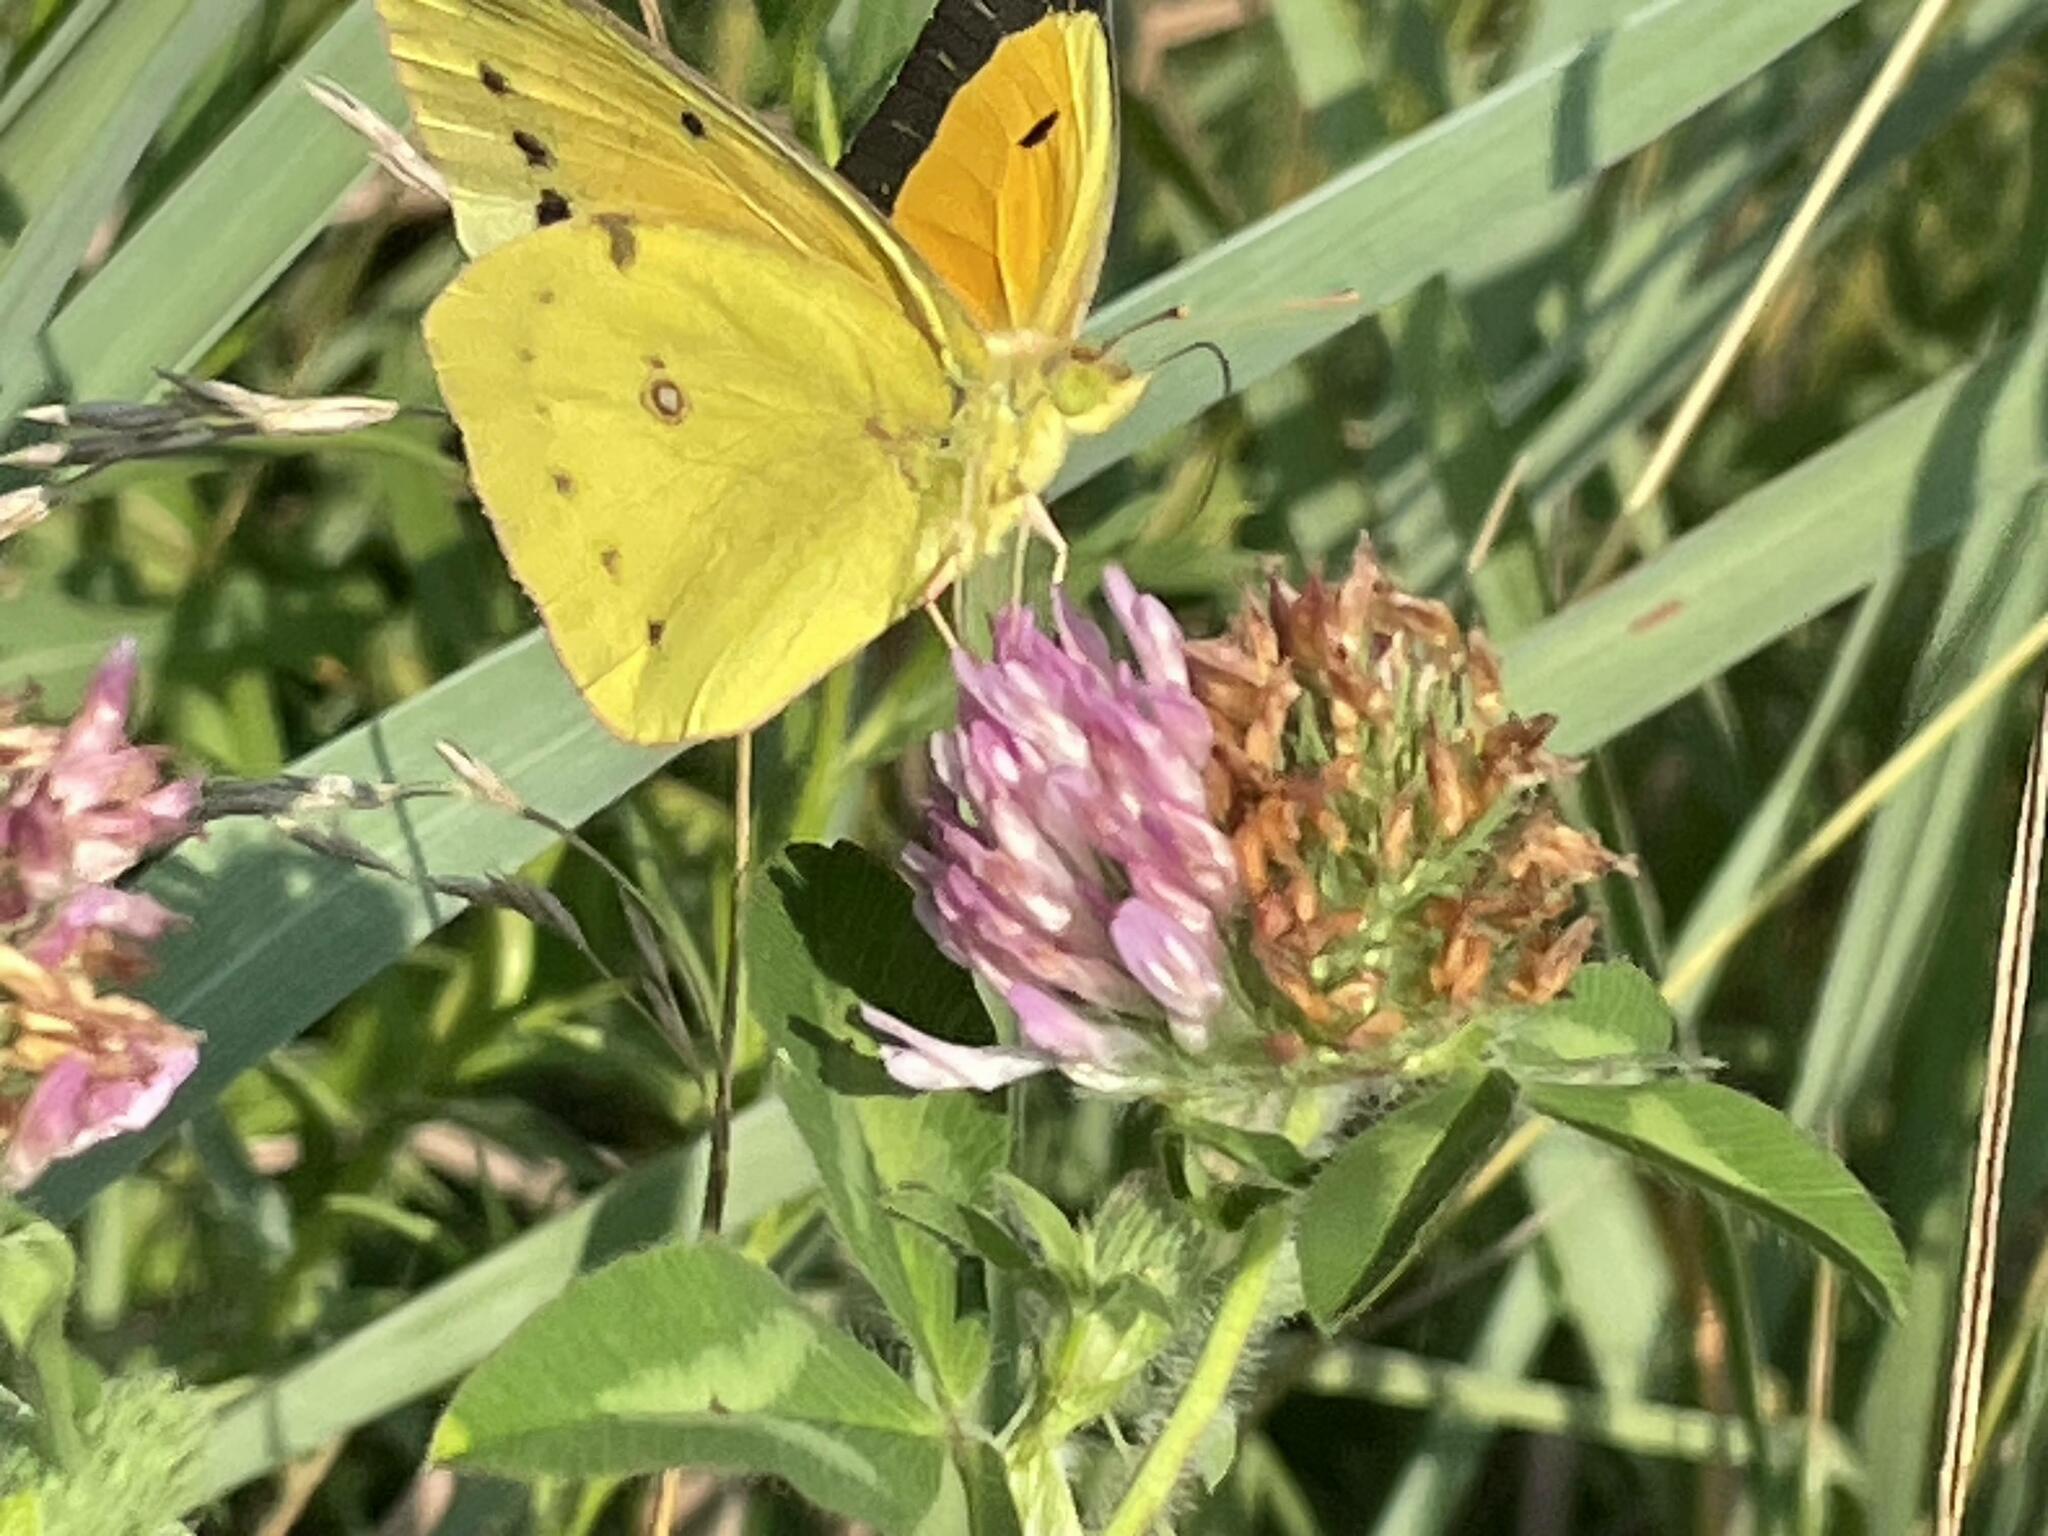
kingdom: Animalia
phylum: Arthropoda
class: Insecta
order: Lepidoptera
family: Pieridae
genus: Colias
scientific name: Colias eurytheme
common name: Alfalfa butterfly
